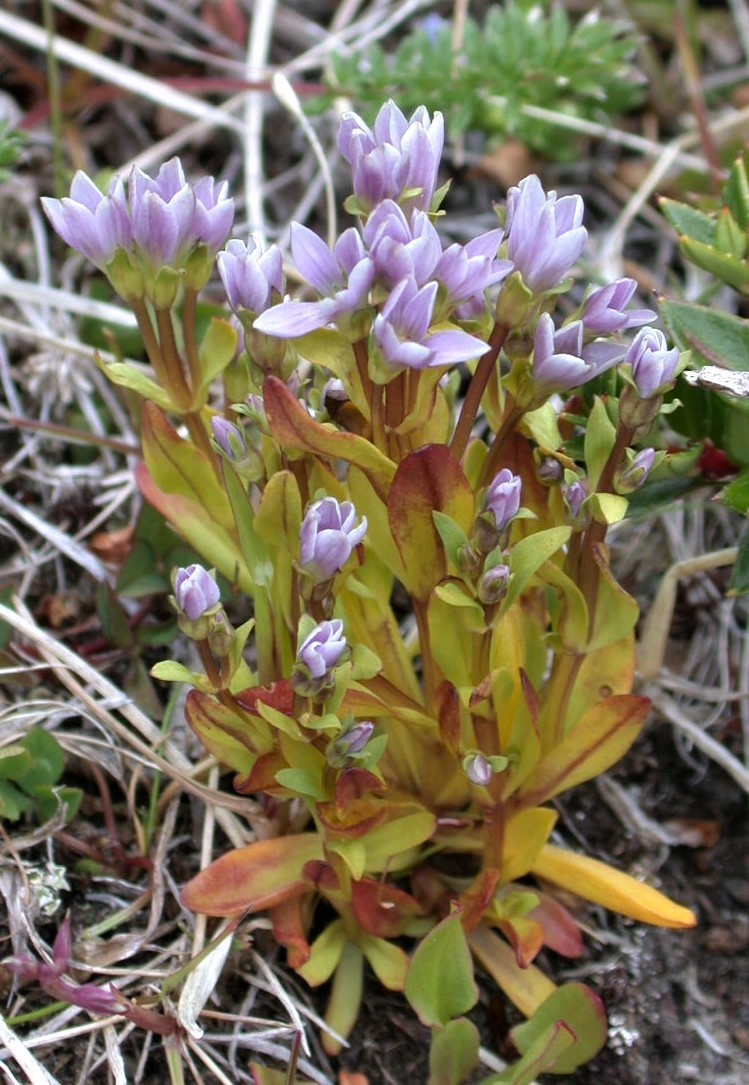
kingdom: Plantae
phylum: Tracheophyta
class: Magnoliopsida
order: Gentianales
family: Gentianaceae
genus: Gentianella
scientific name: Gentianella magellanica
